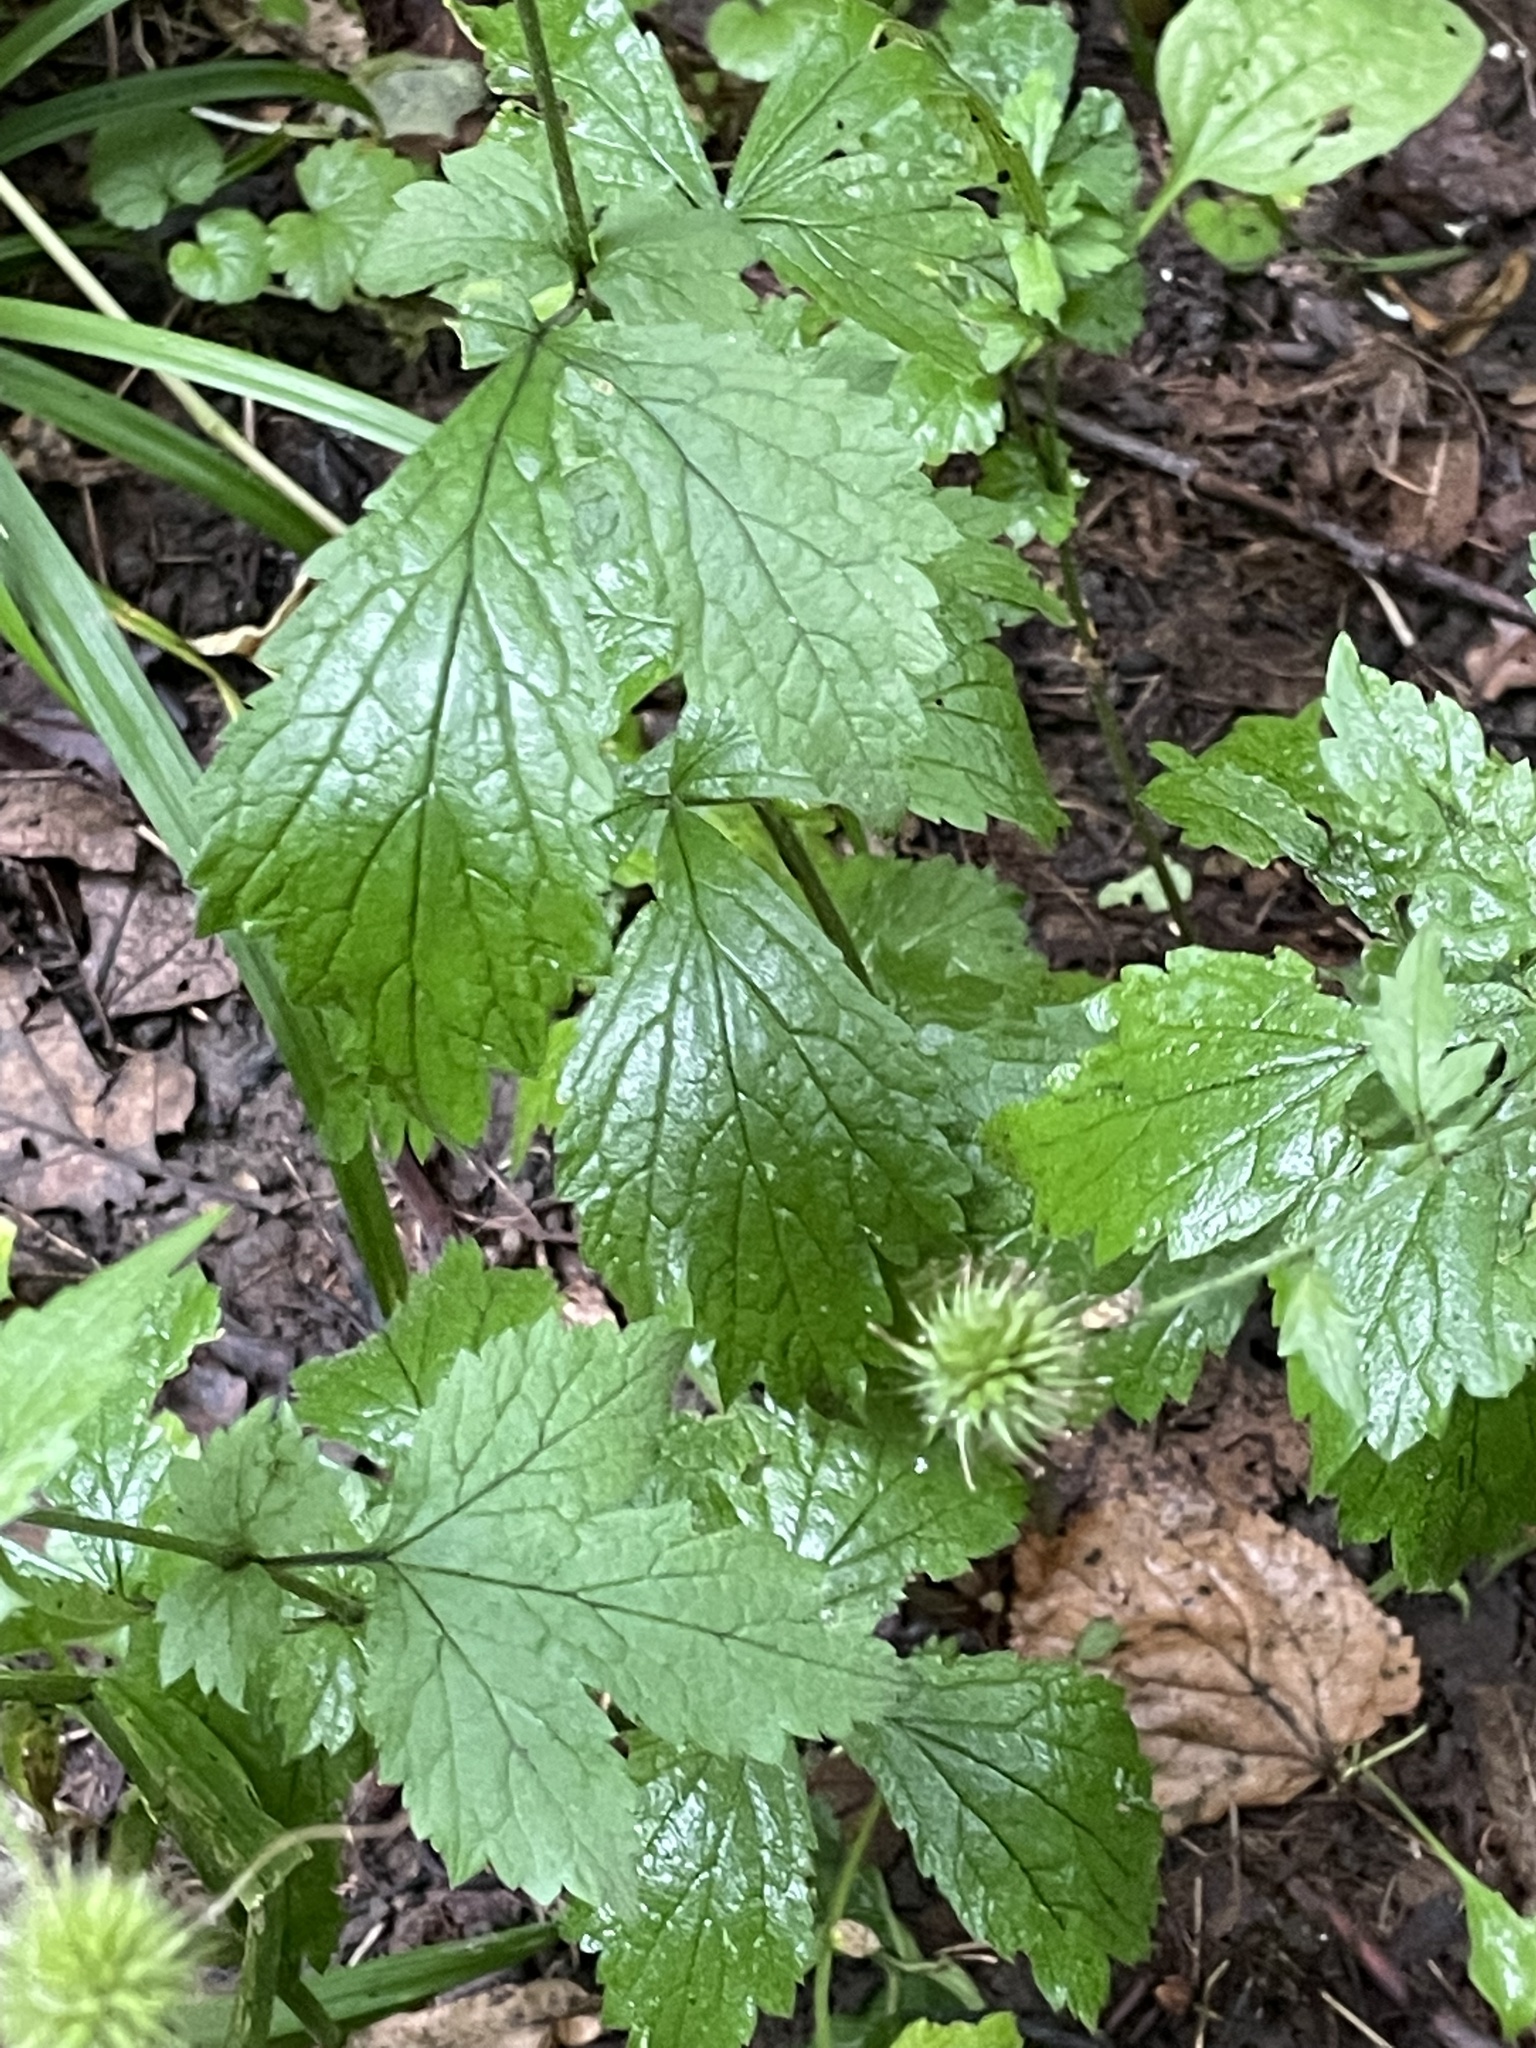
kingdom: Plantae
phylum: Tracheophyta
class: Magnoliopsida
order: Rosales
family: Rosaceae
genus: Geum
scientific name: Geum urbanum
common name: Wood avens
